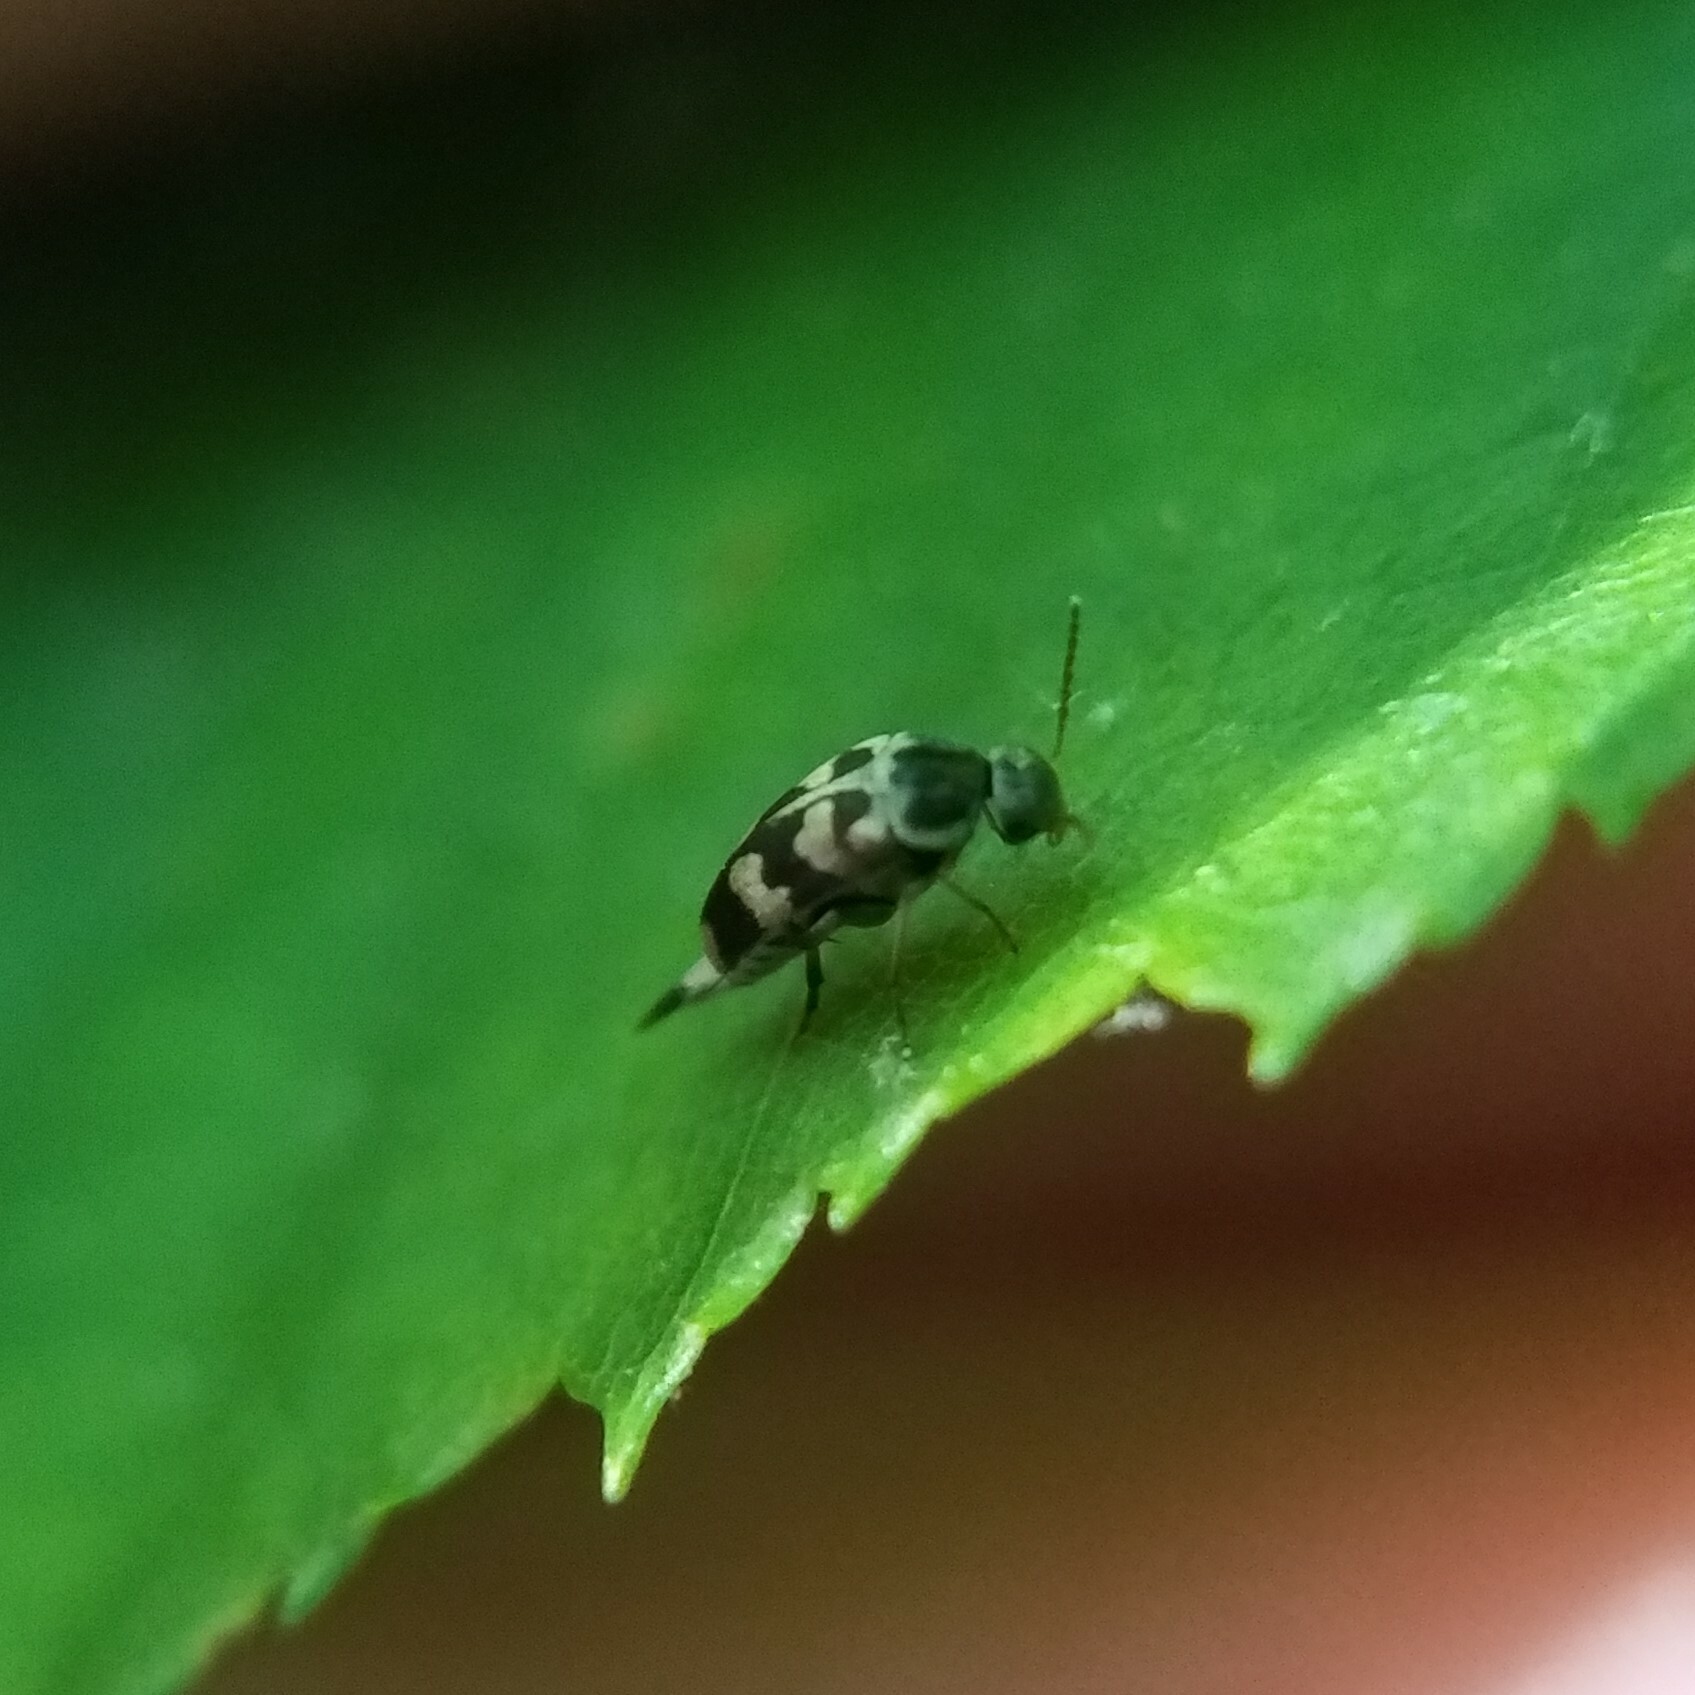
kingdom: Animalia
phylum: Arthropoda
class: Insecta
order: Coleoptera
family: Mordellidae
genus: Falsomordellistena
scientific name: Falsomordellistena pubescens
